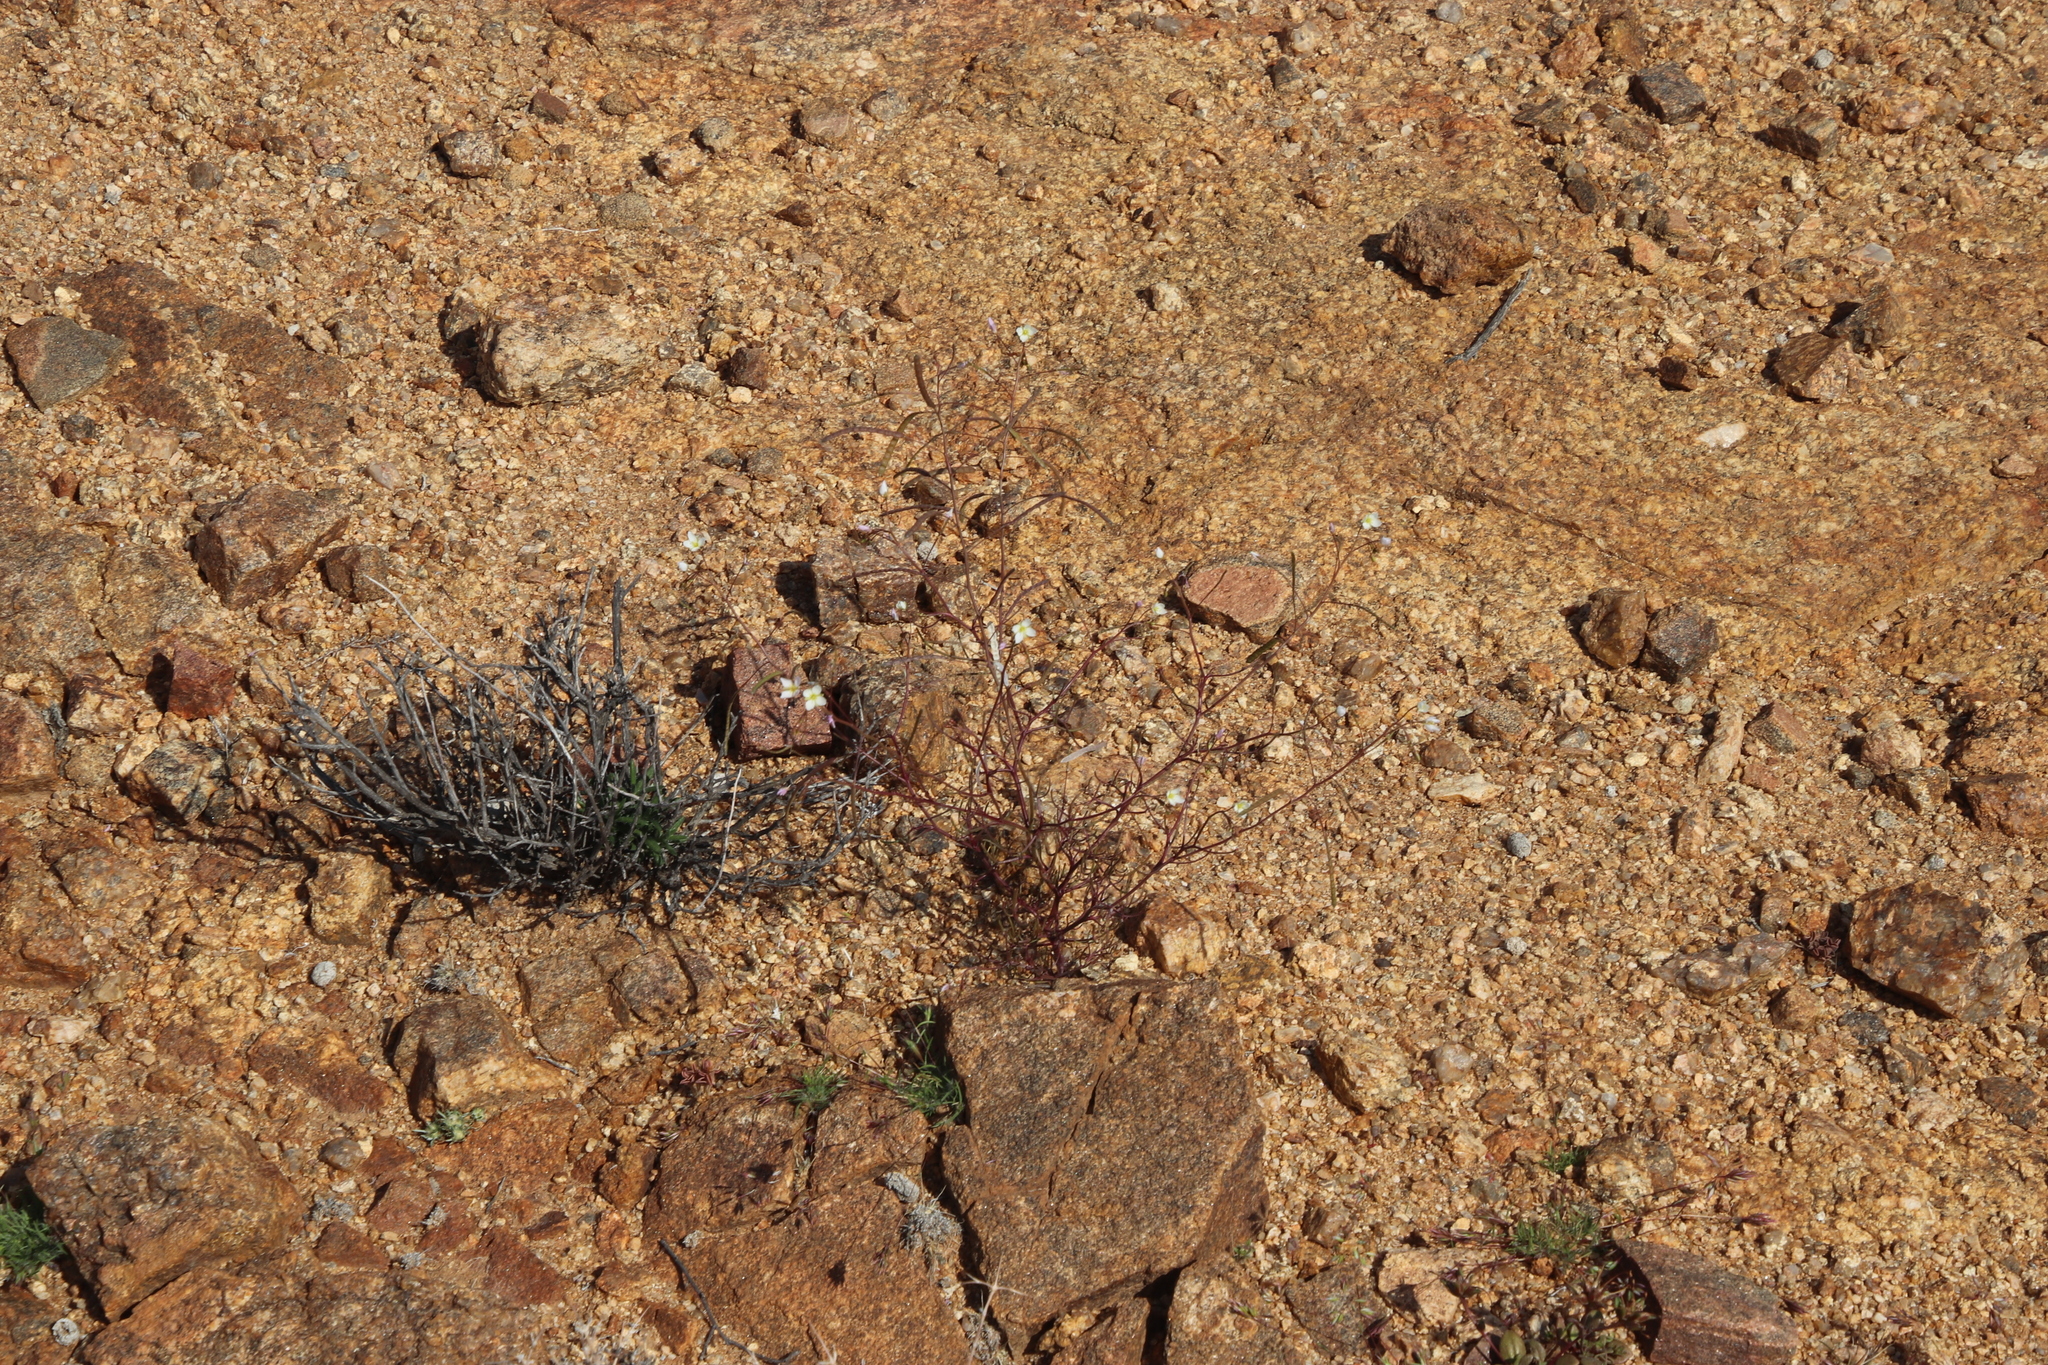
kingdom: Plantae
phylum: Tracheophyta
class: Magnoliopsida
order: Brassicales
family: Brassicaceae
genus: Heliophila
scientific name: Heliophila variabilis
